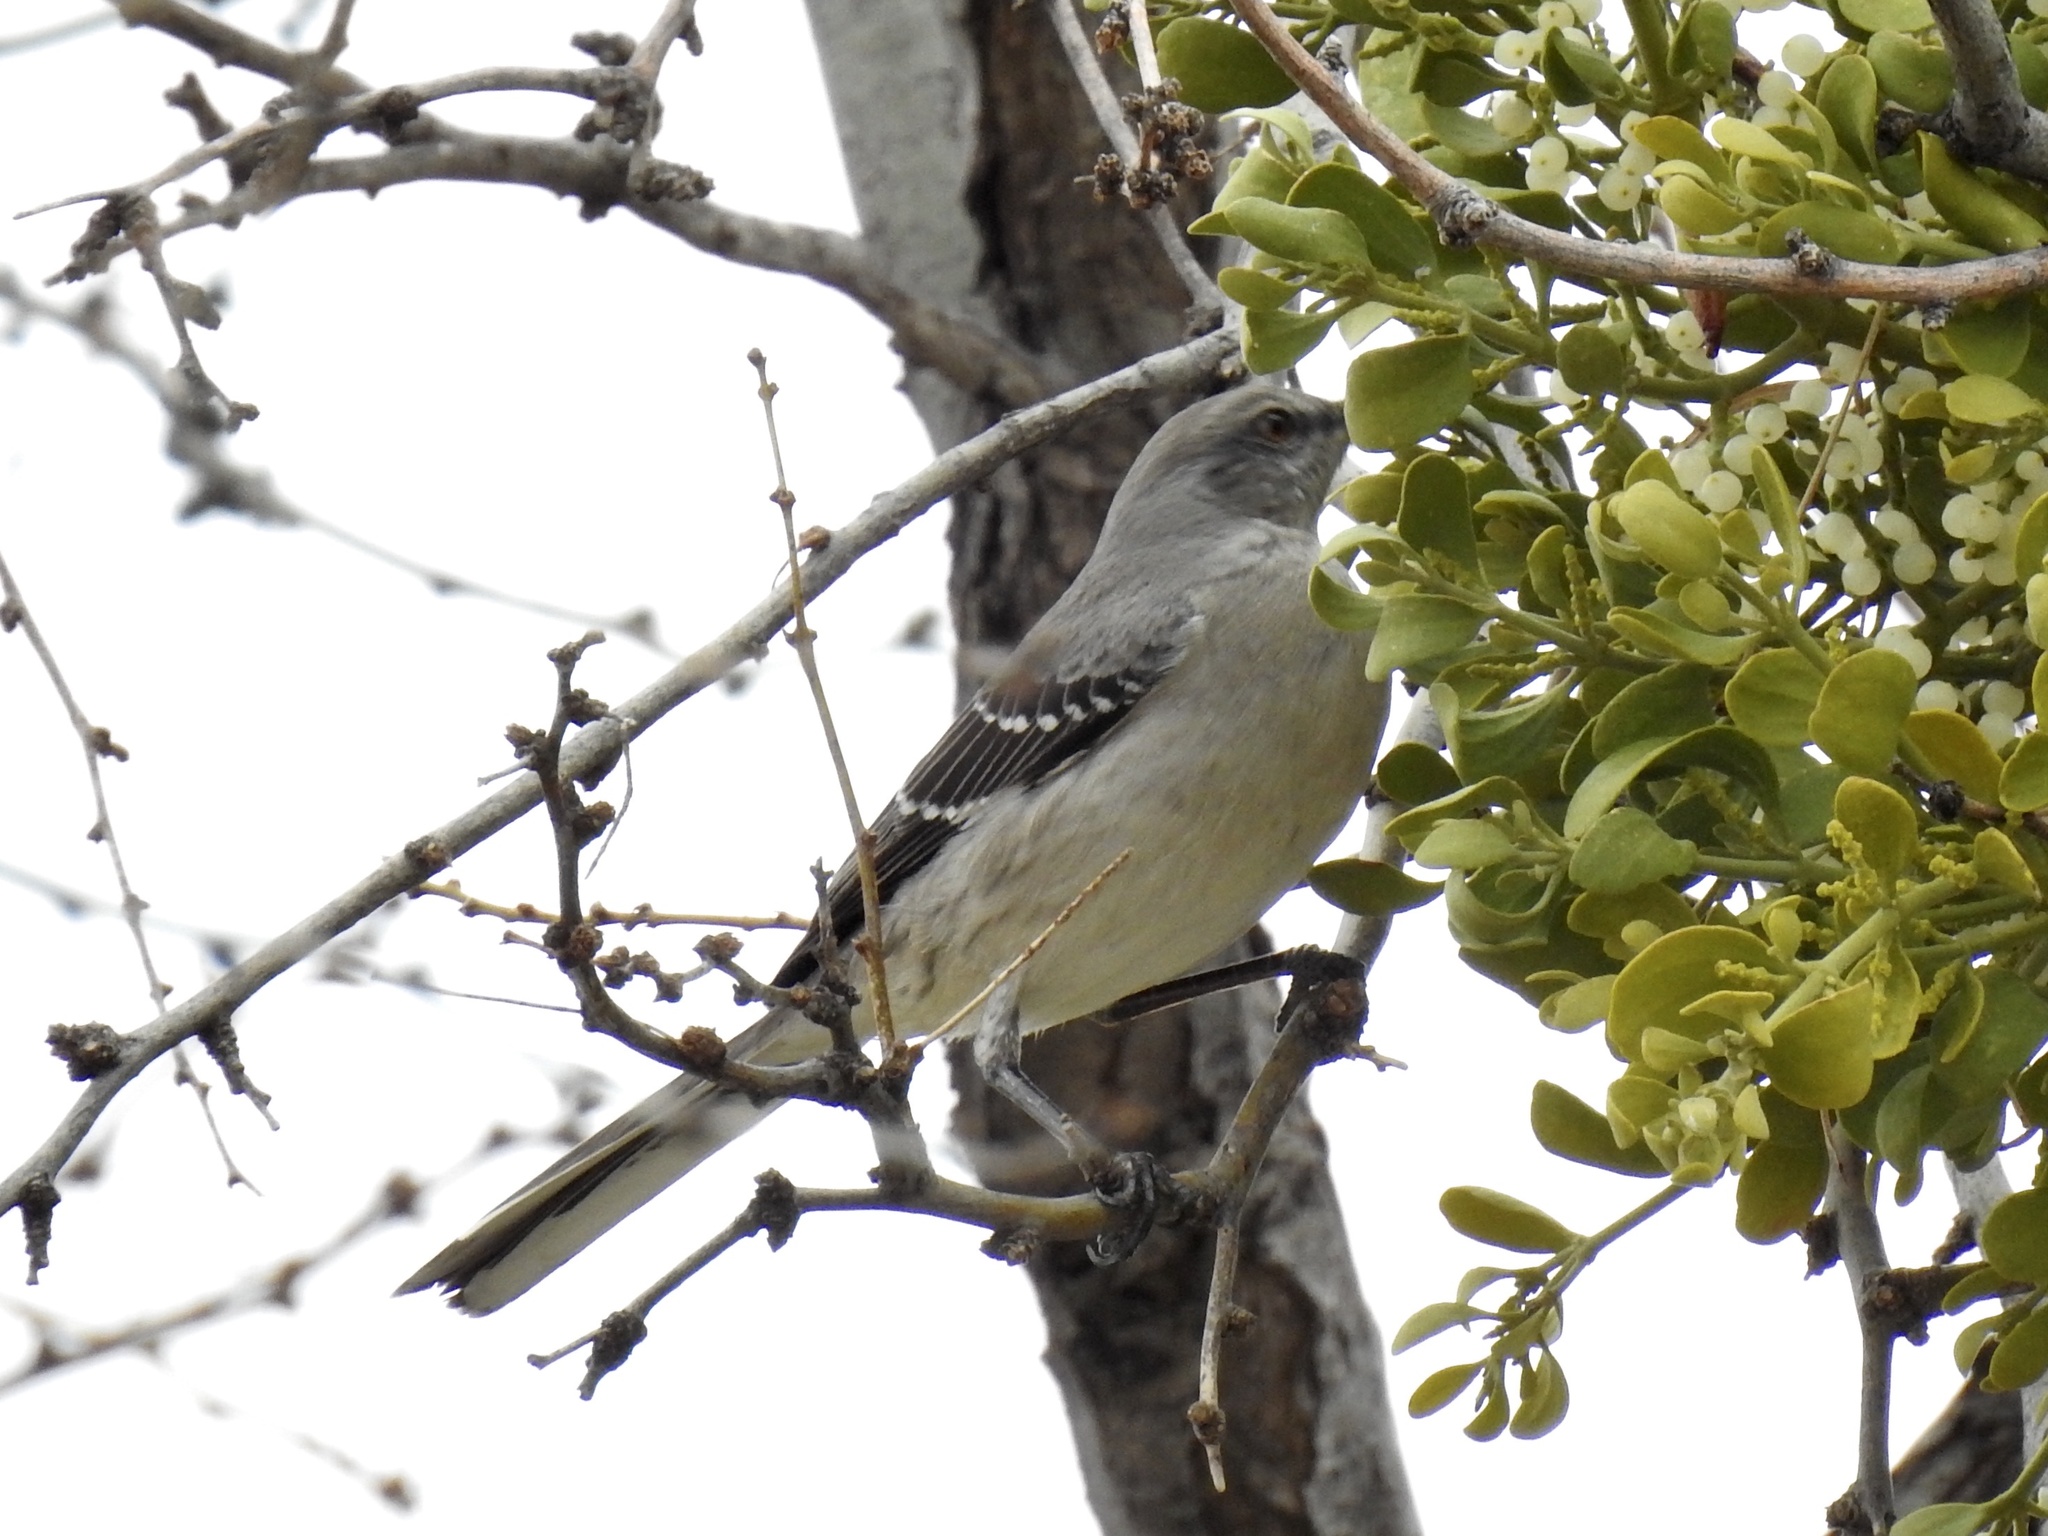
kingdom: Animalia
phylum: Chordata
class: Aves
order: Passeriformes
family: Mimidae
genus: Mimus
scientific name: Mimus polyglottos
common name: Northern mockingbird
